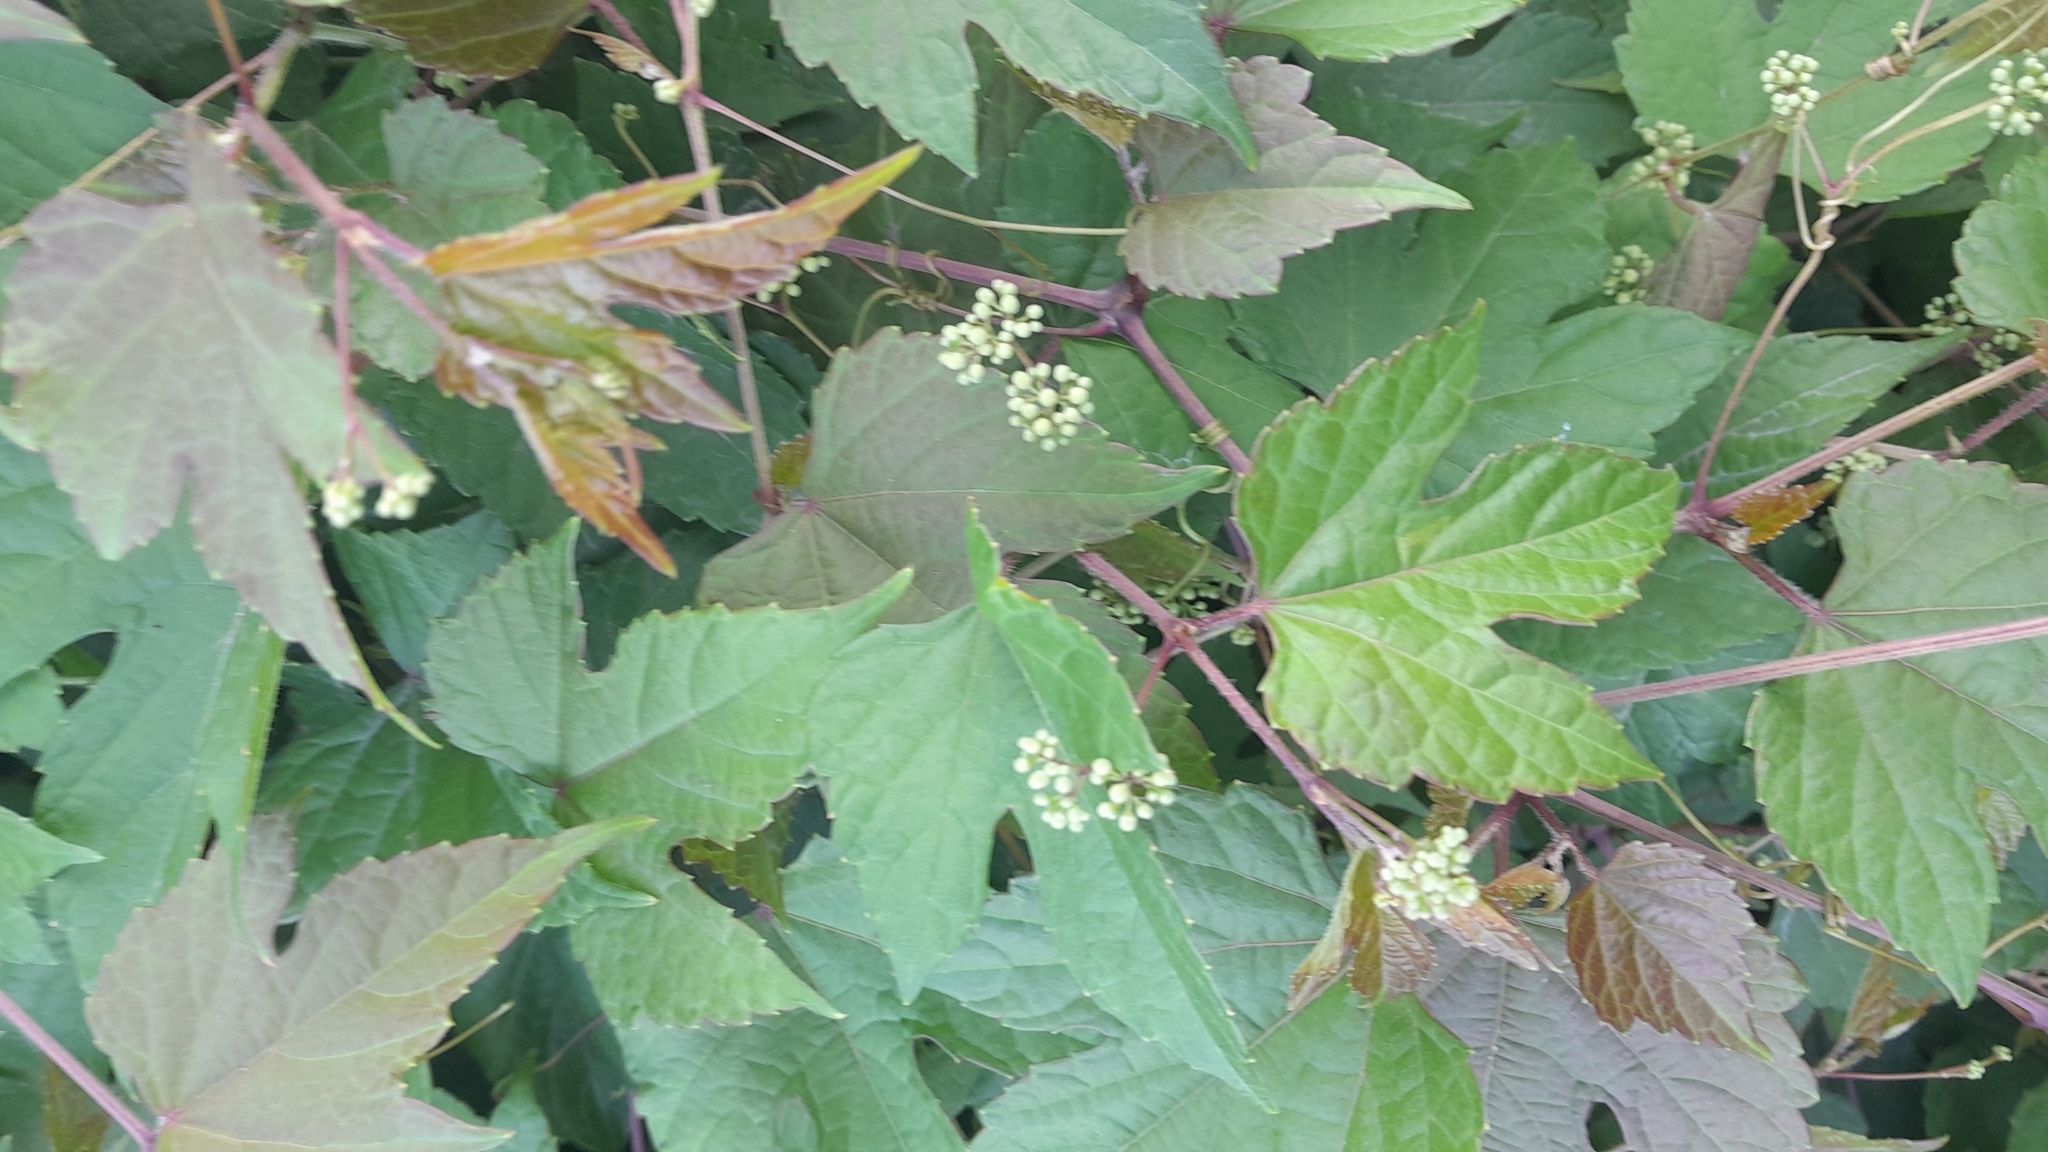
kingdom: Plantae
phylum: Tracheophyta
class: Magnoliopsida
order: Vitales
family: Vitaceae
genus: Ampelopsis
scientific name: Ampelopsis glandulosa
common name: Amur peppervine
